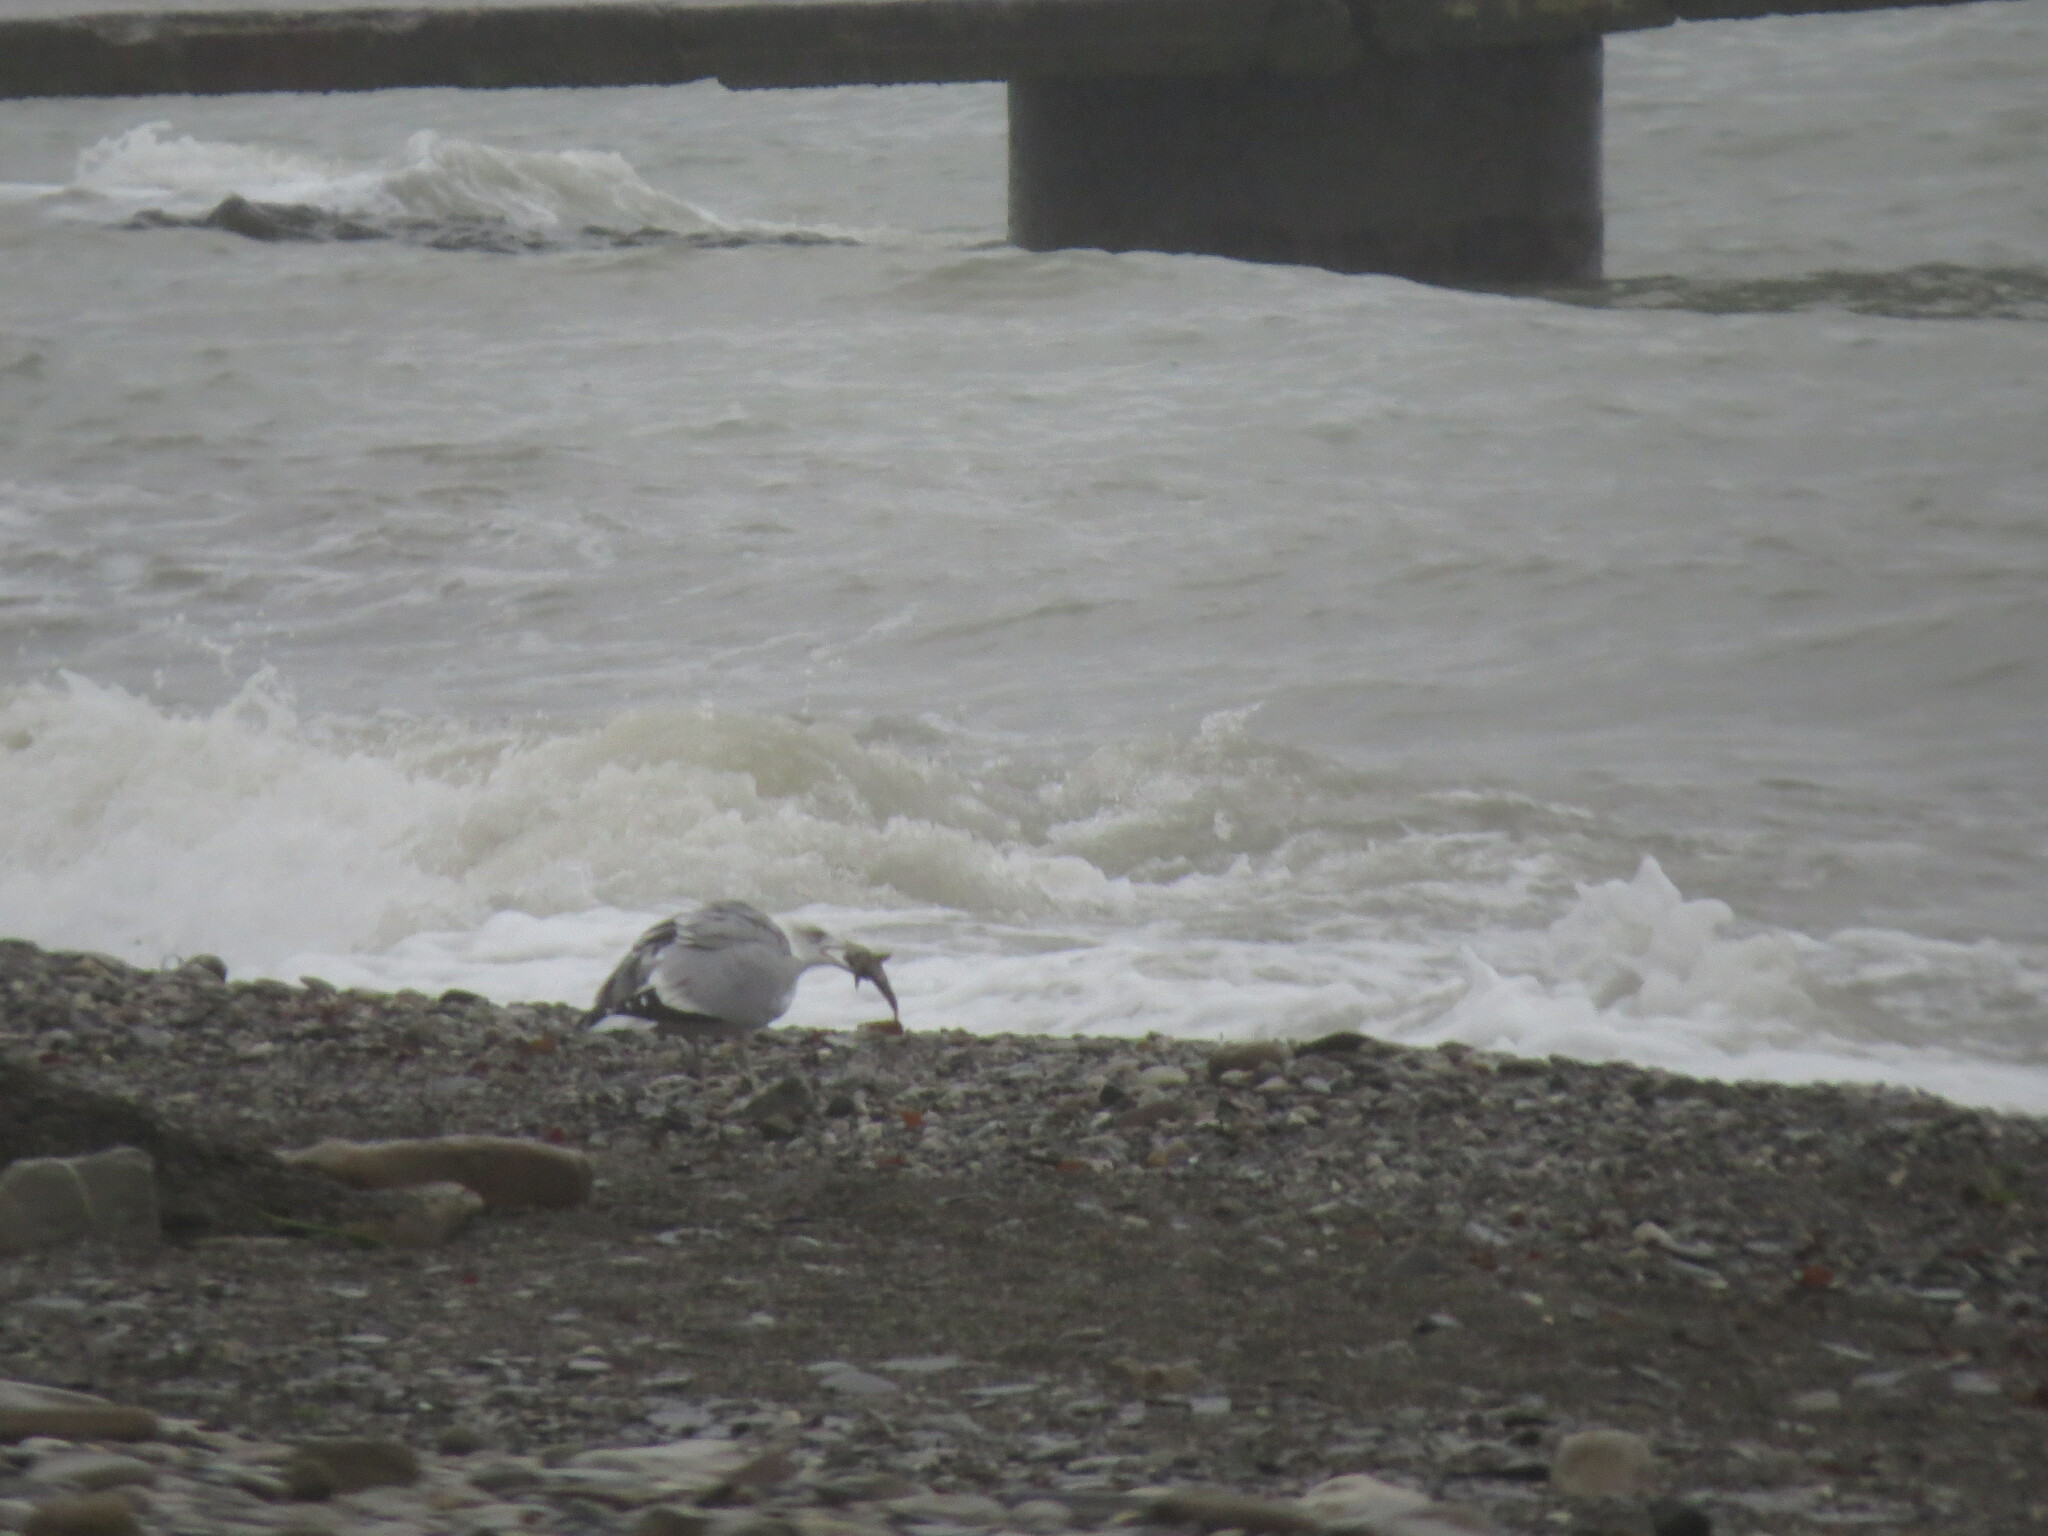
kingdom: Animalia
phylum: Chordata
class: Aves
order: Charadriiformes
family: Laridae
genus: Larus
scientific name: Larus michahellis
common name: Yellow-legged gull
